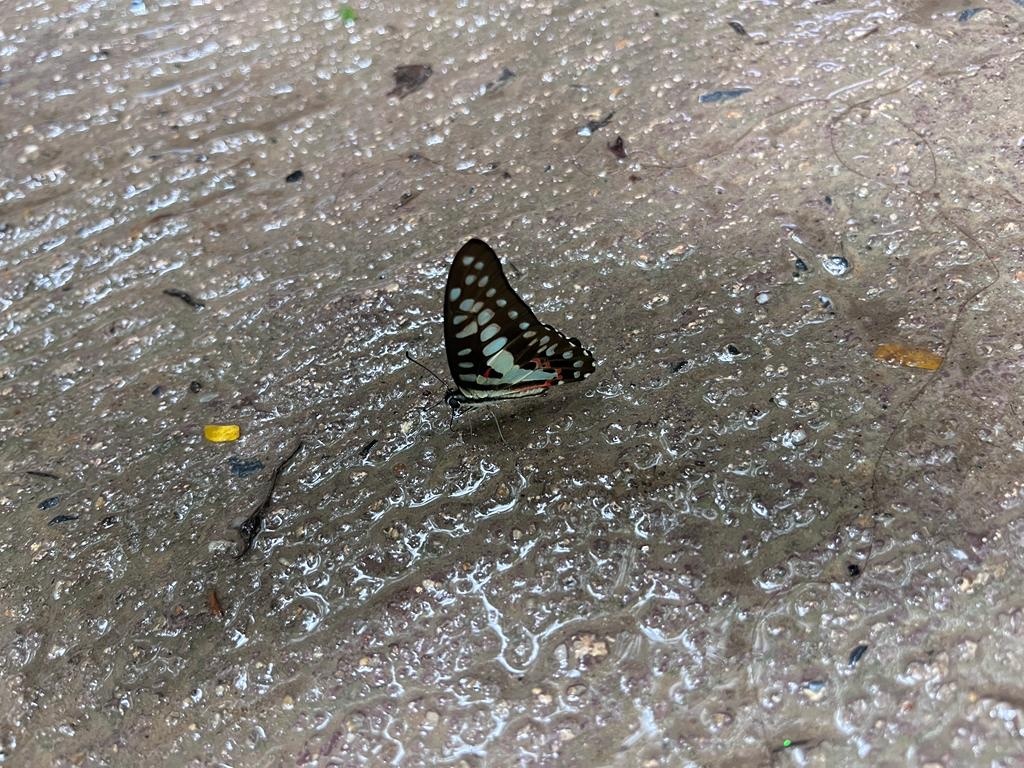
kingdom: Animalia
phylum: Arthropoda
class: Insecta
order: Lepidoptera
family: Papilionidae
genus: Graphium
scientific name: Graphium doson
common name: Common jay
